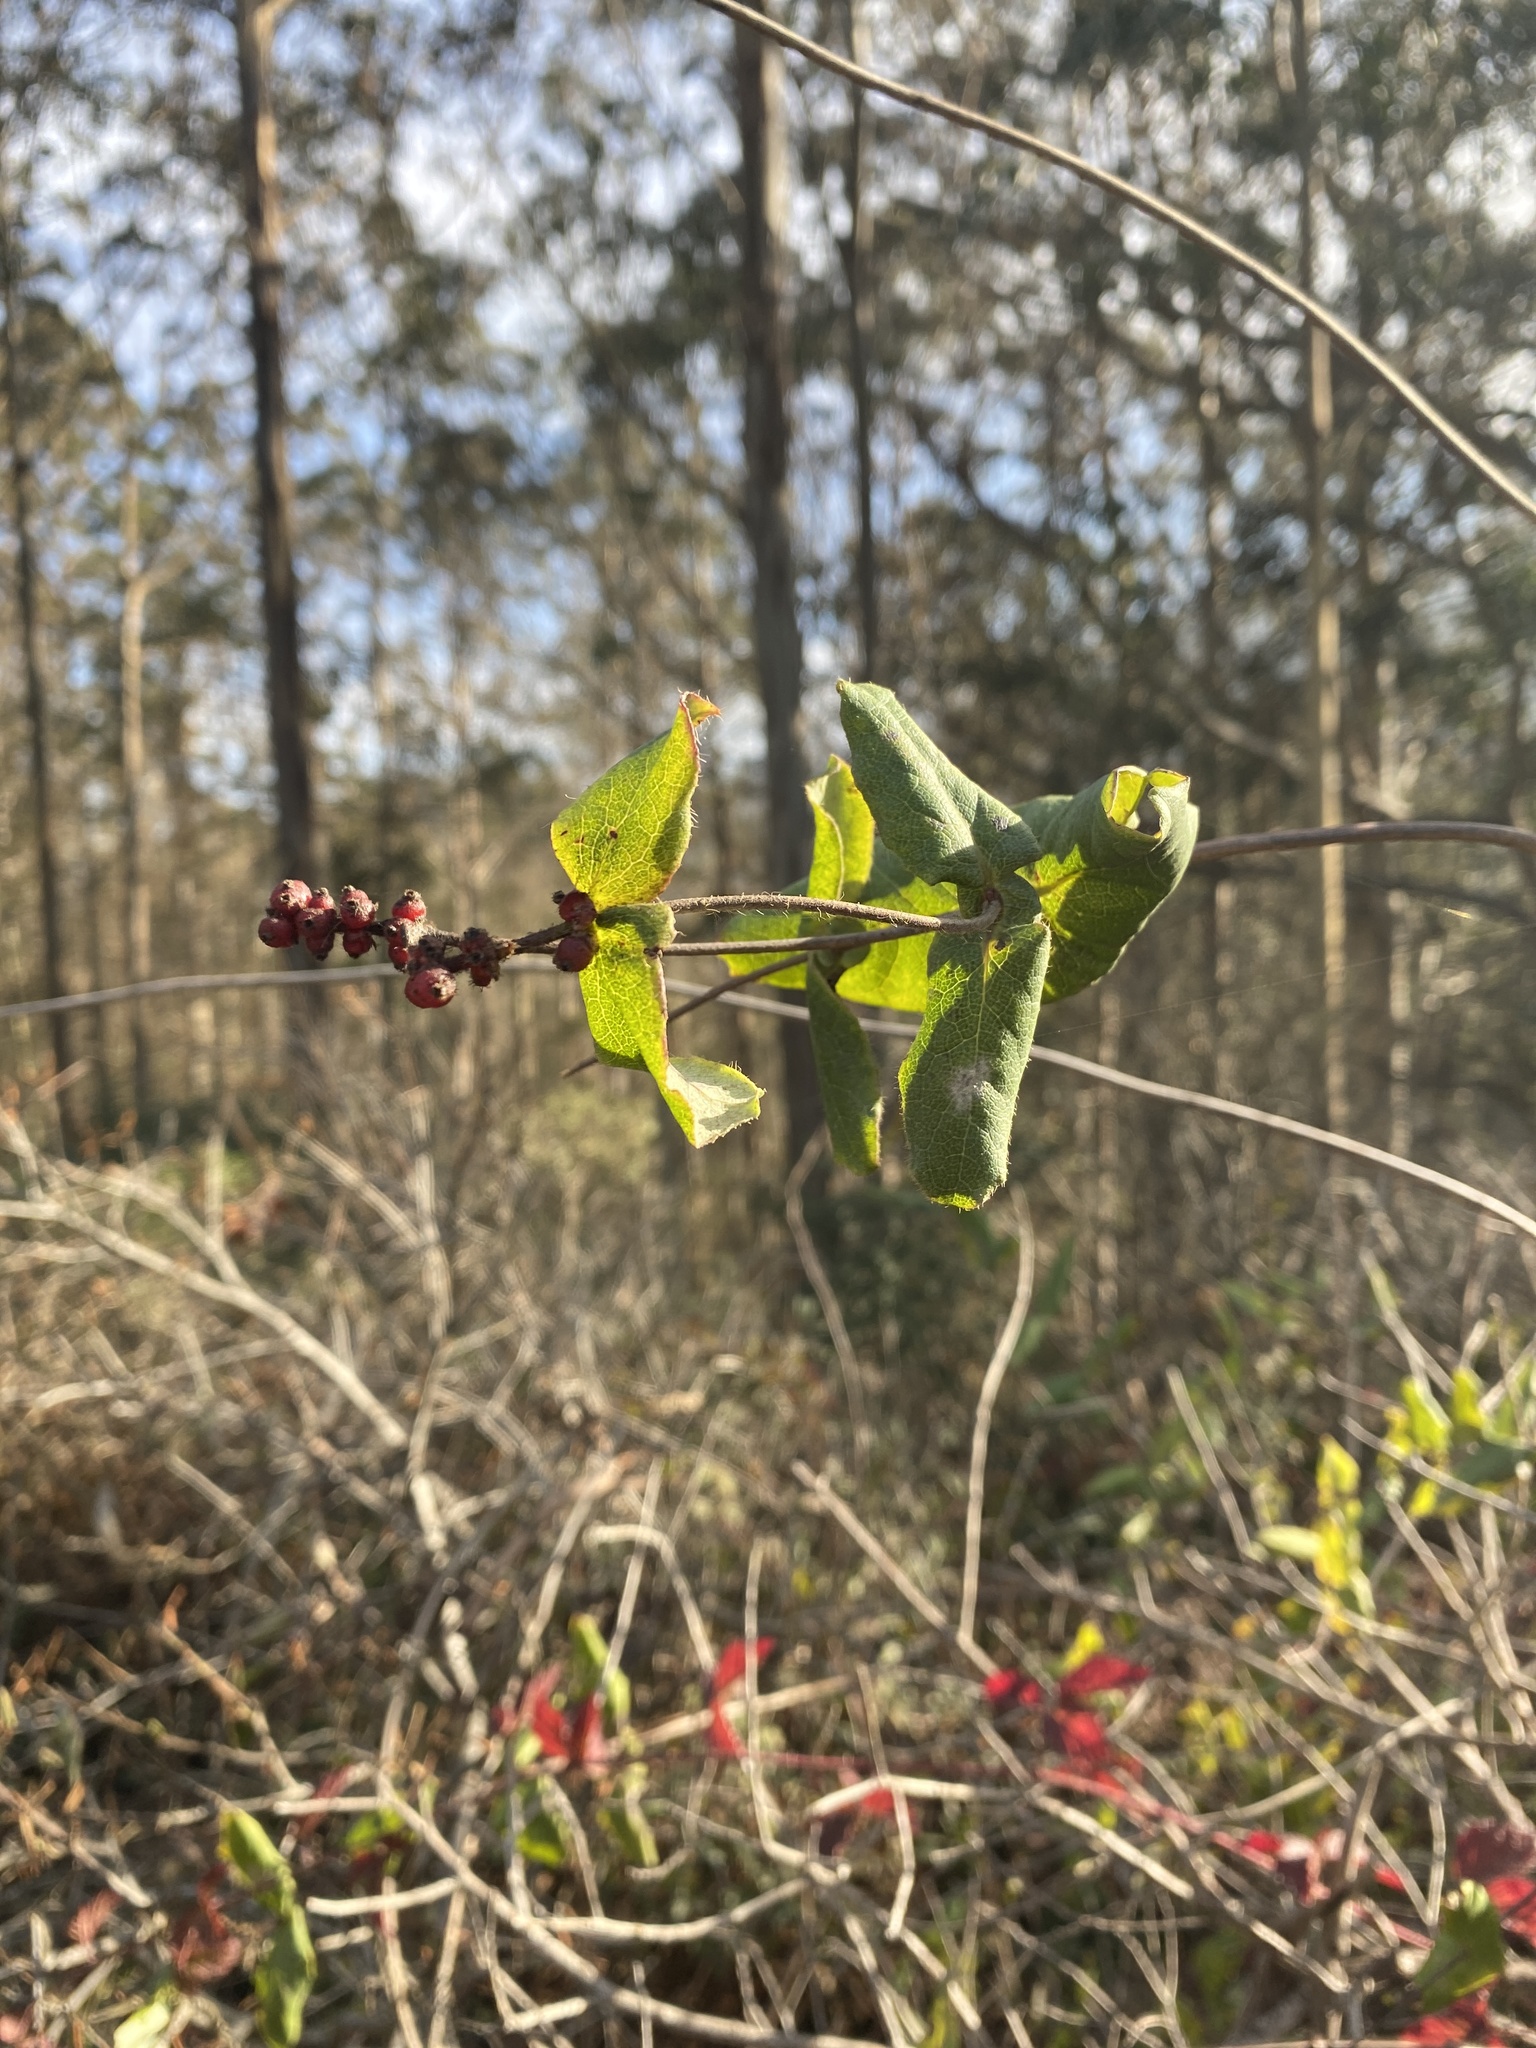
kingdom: Plantae
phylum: Tracheophyta
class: Magnoliopsida
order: Dipsacales
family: Caprifoliaceae
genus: Lonicera
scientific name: Lonicera hispidula
